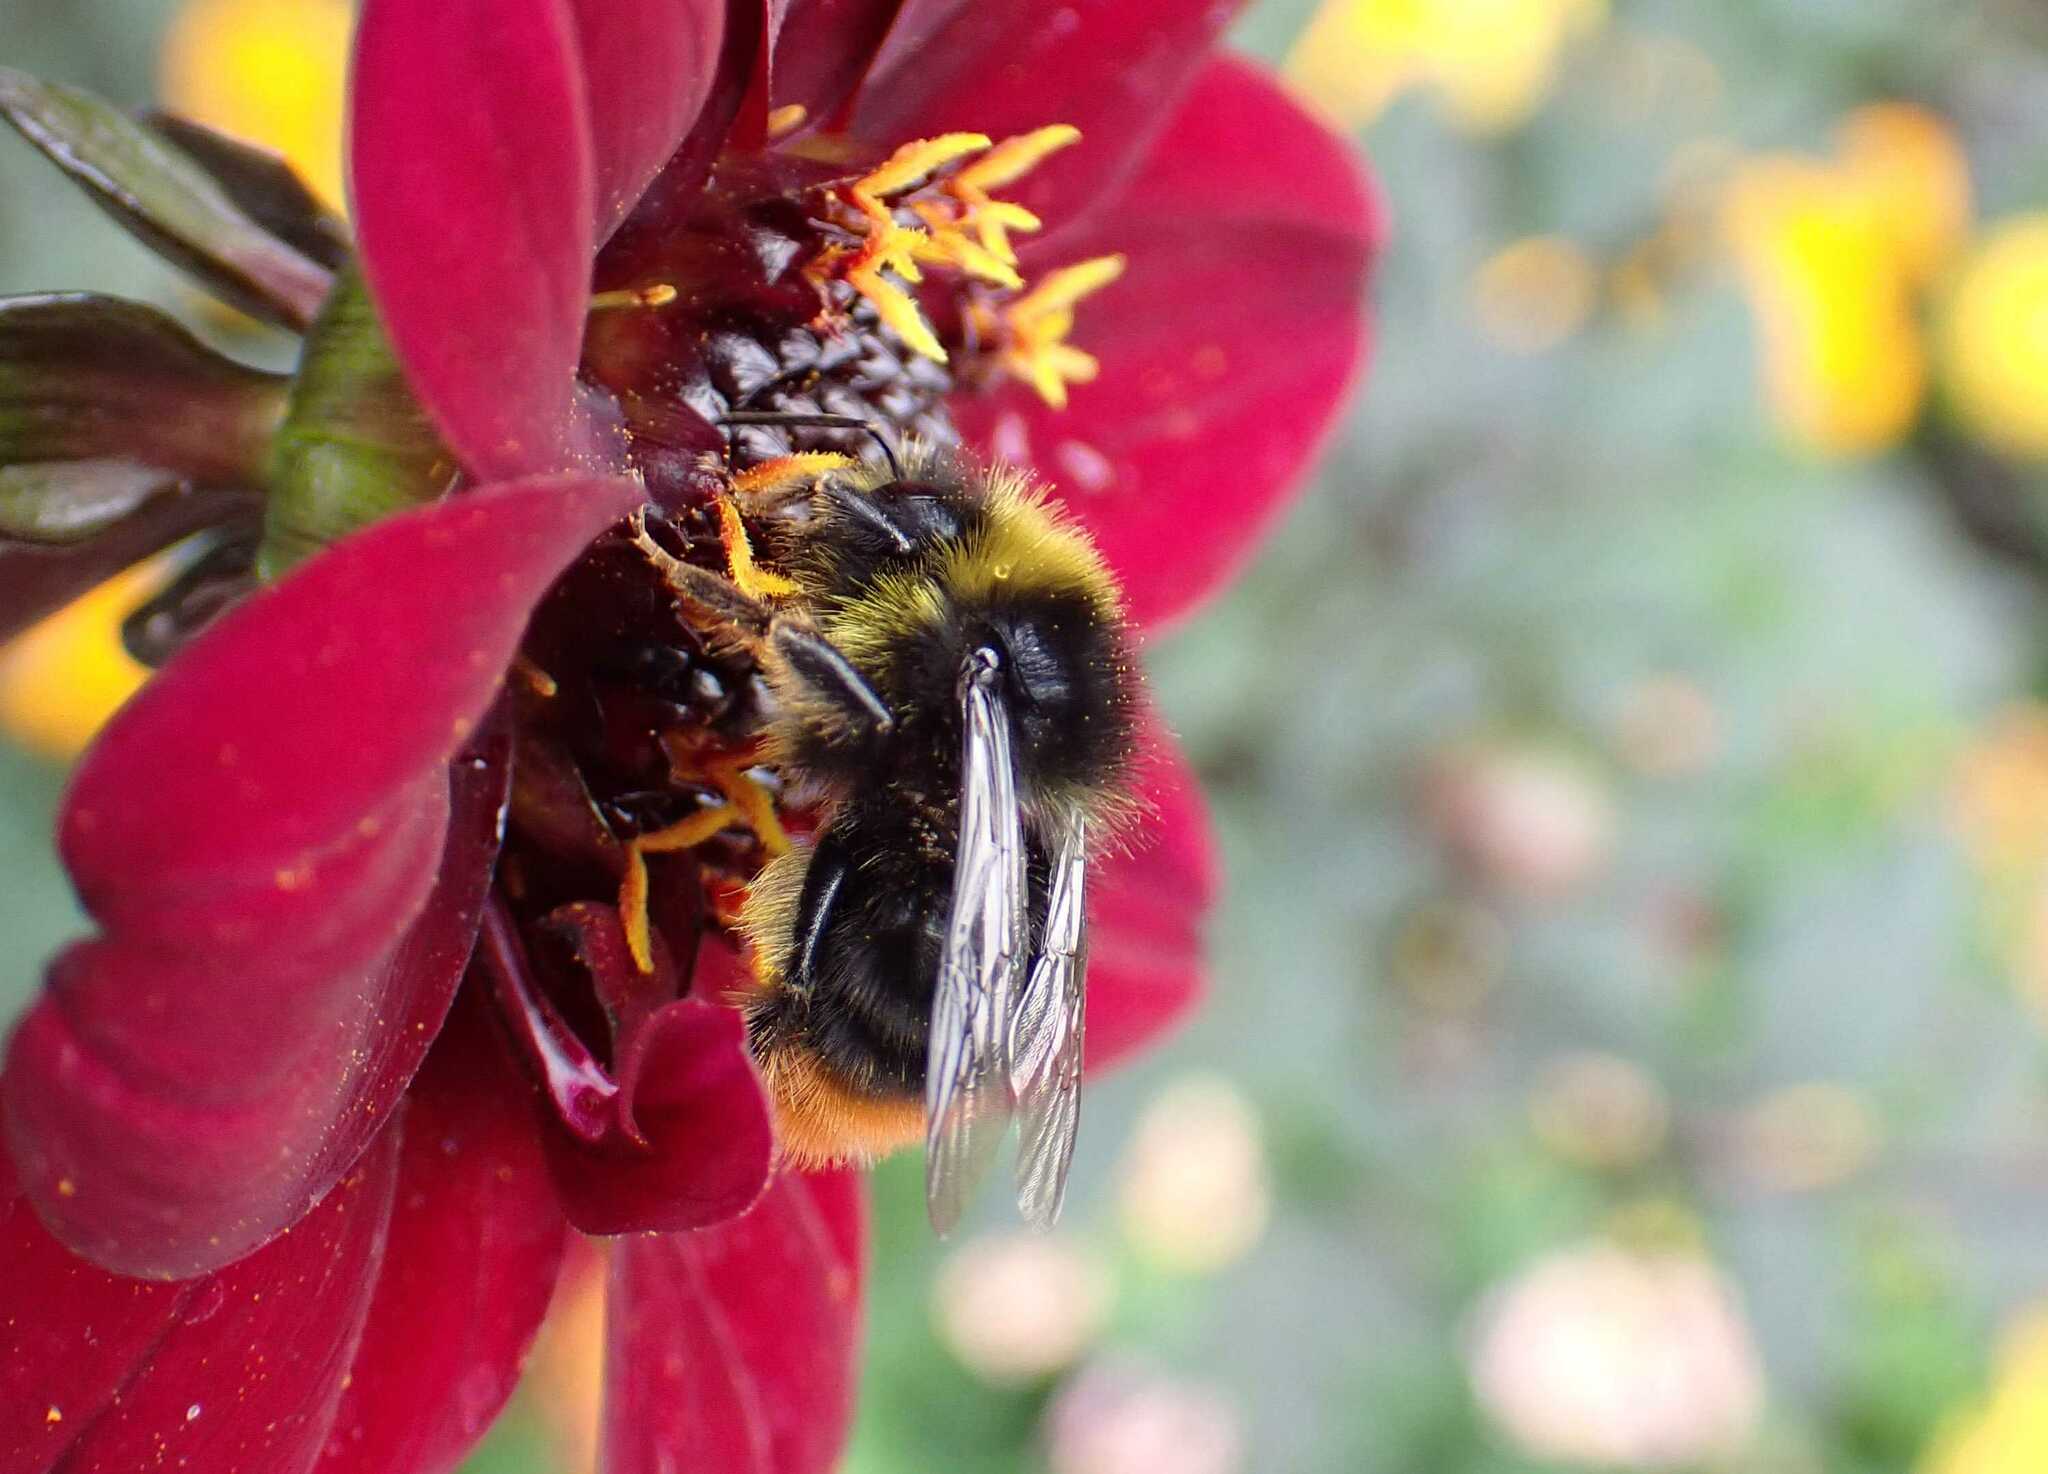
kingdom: Animalia
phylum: Arthropoda
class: Insecta
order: Hymenoptera
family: Apidae
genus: Bombus
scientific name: Bombus lapidarius
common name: Large red-tailed humble-bee
